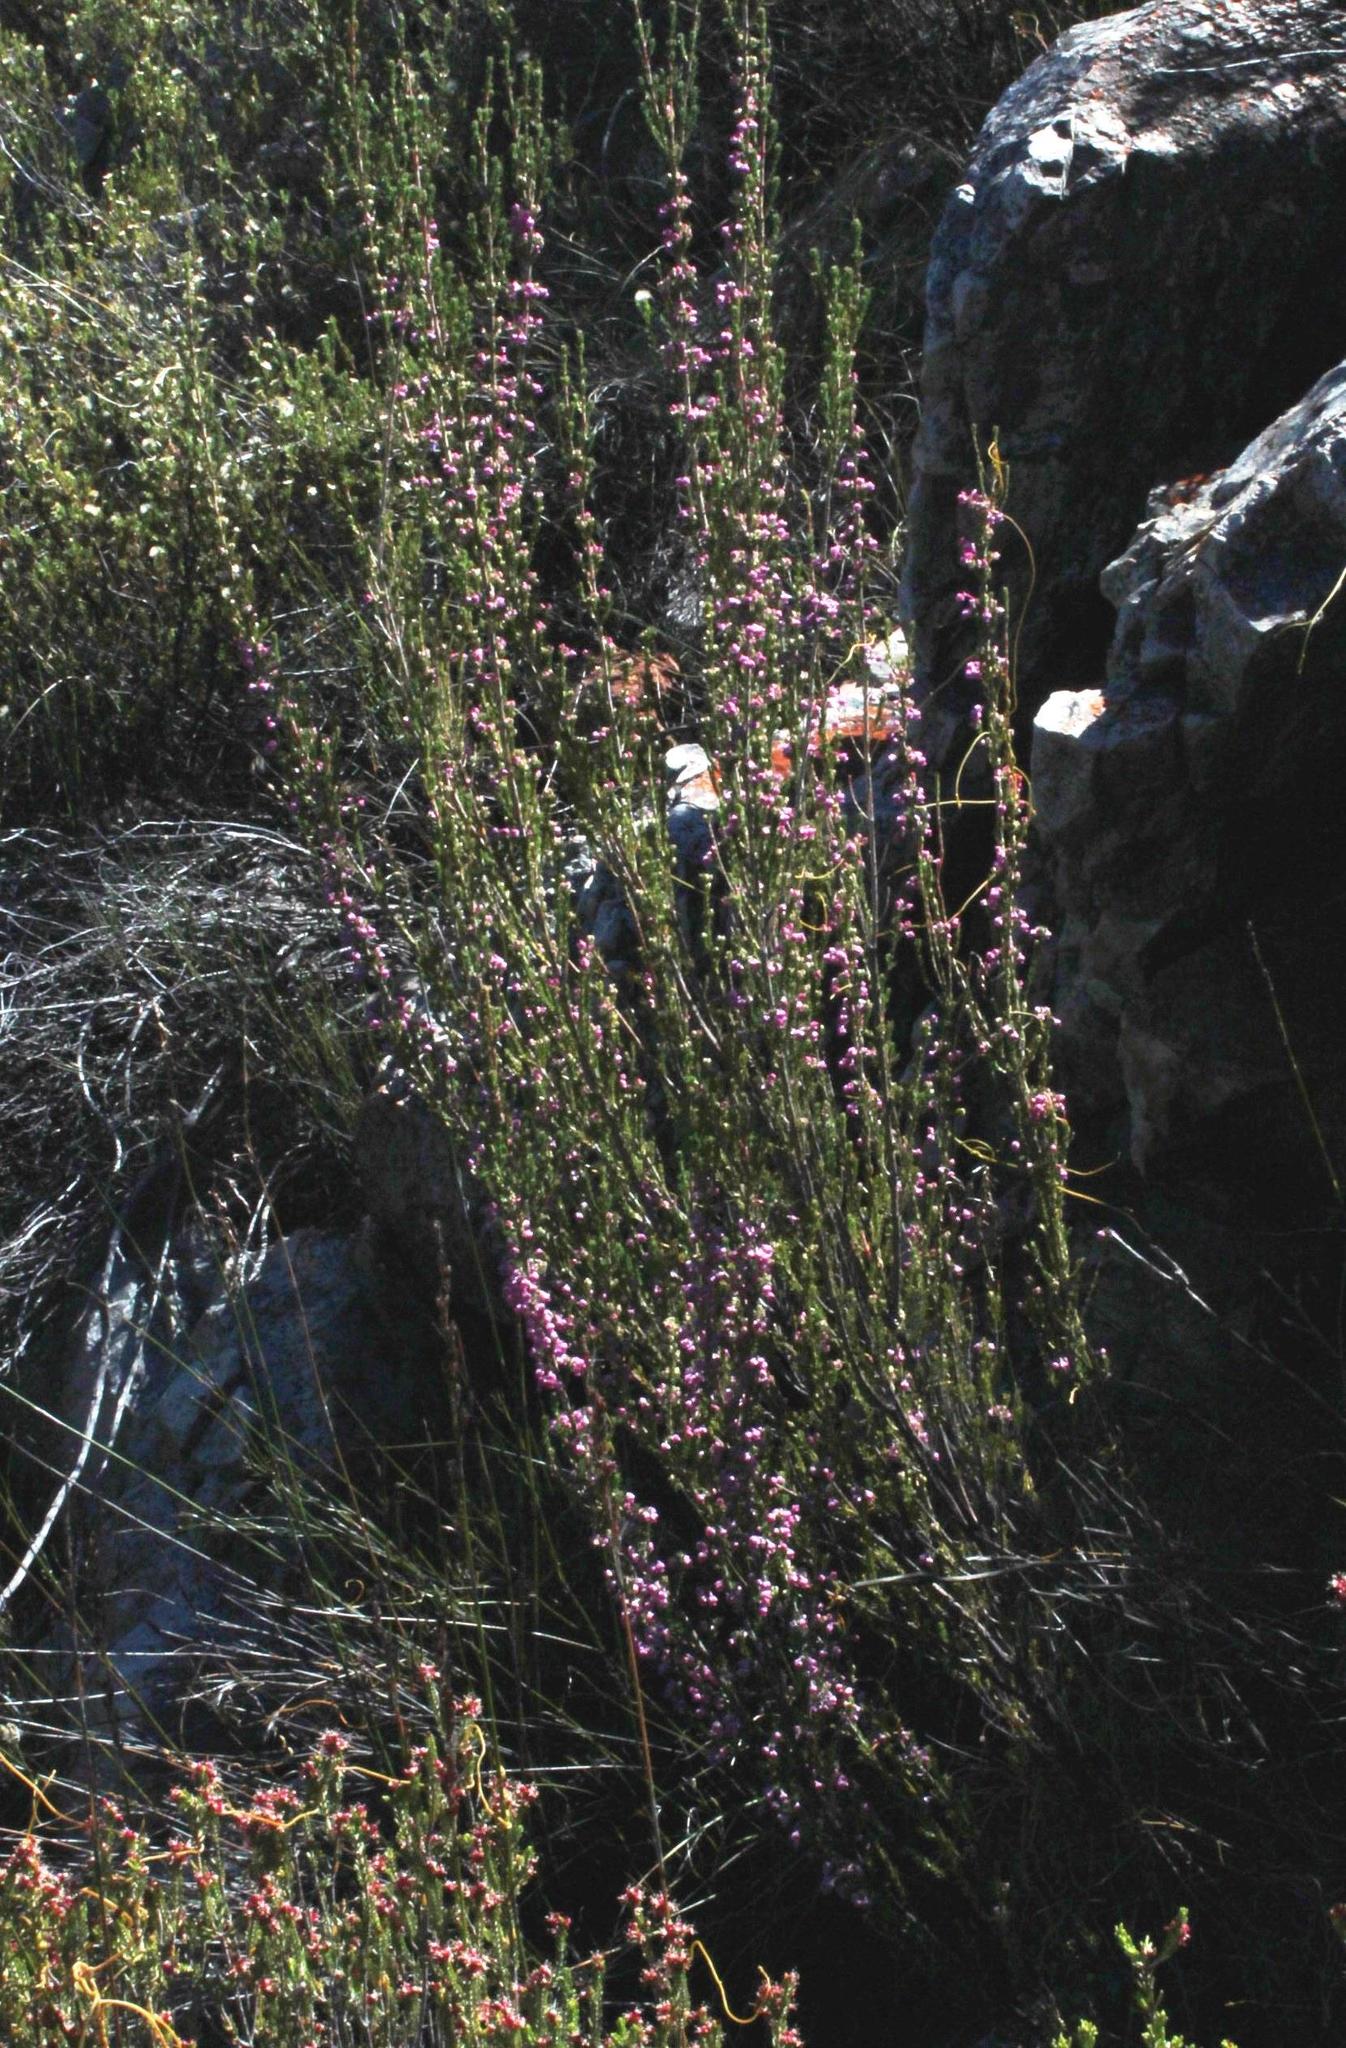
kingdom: Plantae
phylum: Tracheophyta
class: Magnoliopsida
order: Ericales
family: Ericaceae
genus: Erica
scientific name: Erica selaginifolia
